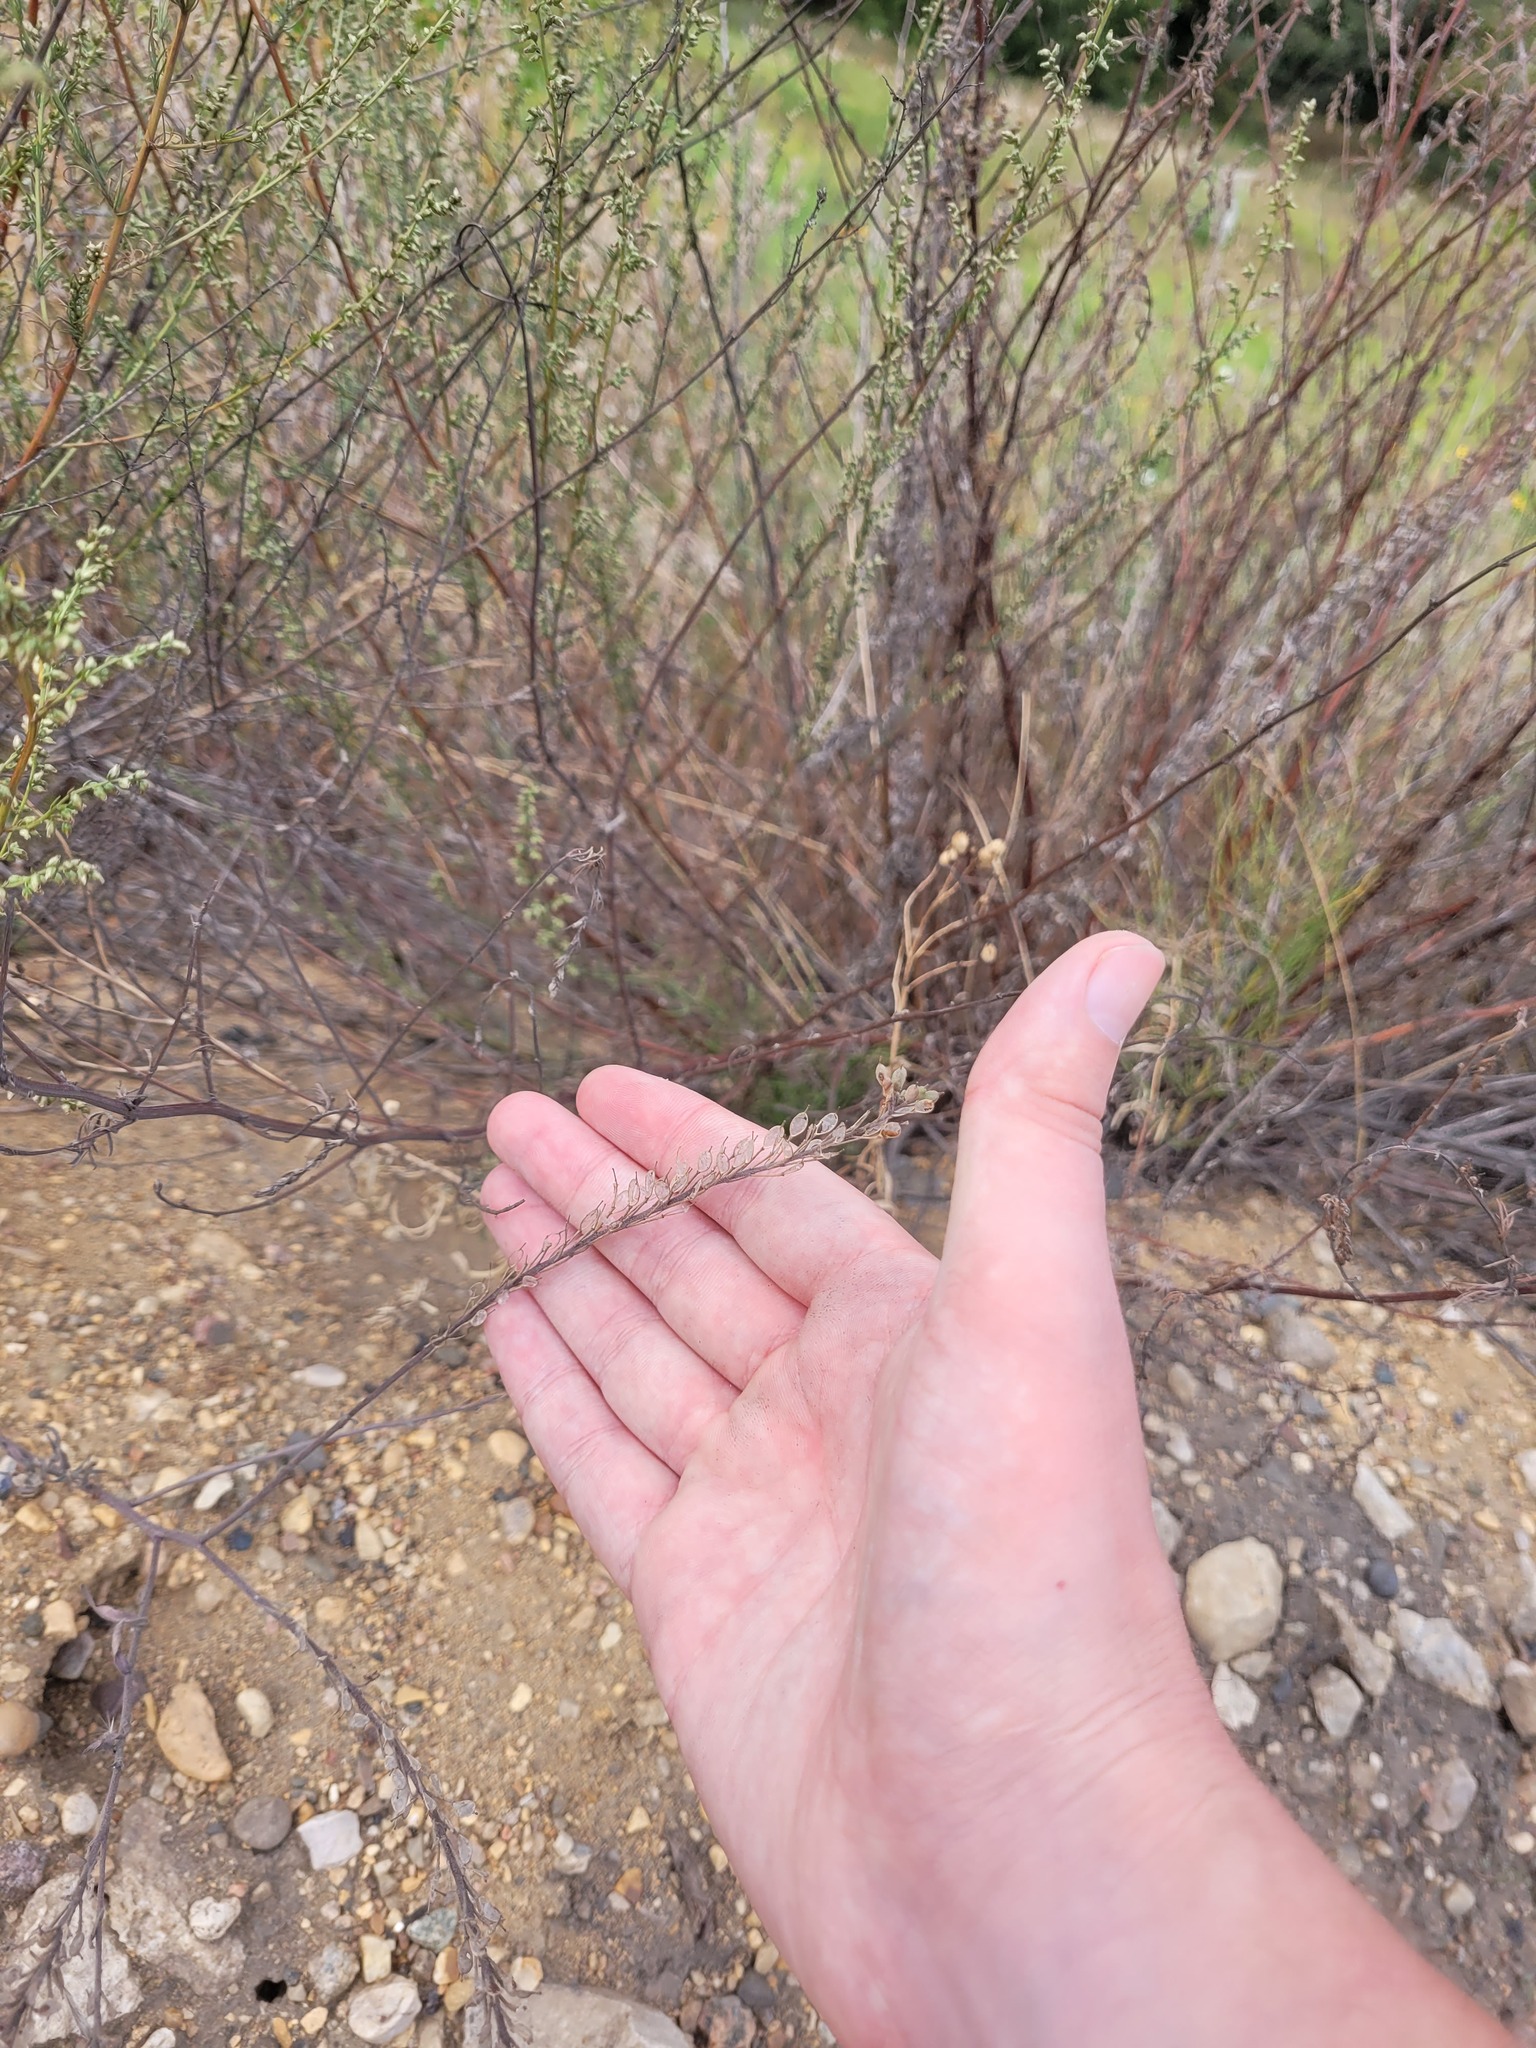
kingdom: Plantae
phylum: Tracheophyta
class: Magnoliopsida
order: Brassicales
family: Brassicaceae
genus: Berteroa
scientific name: Berteroa incana
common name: Hoary alison
